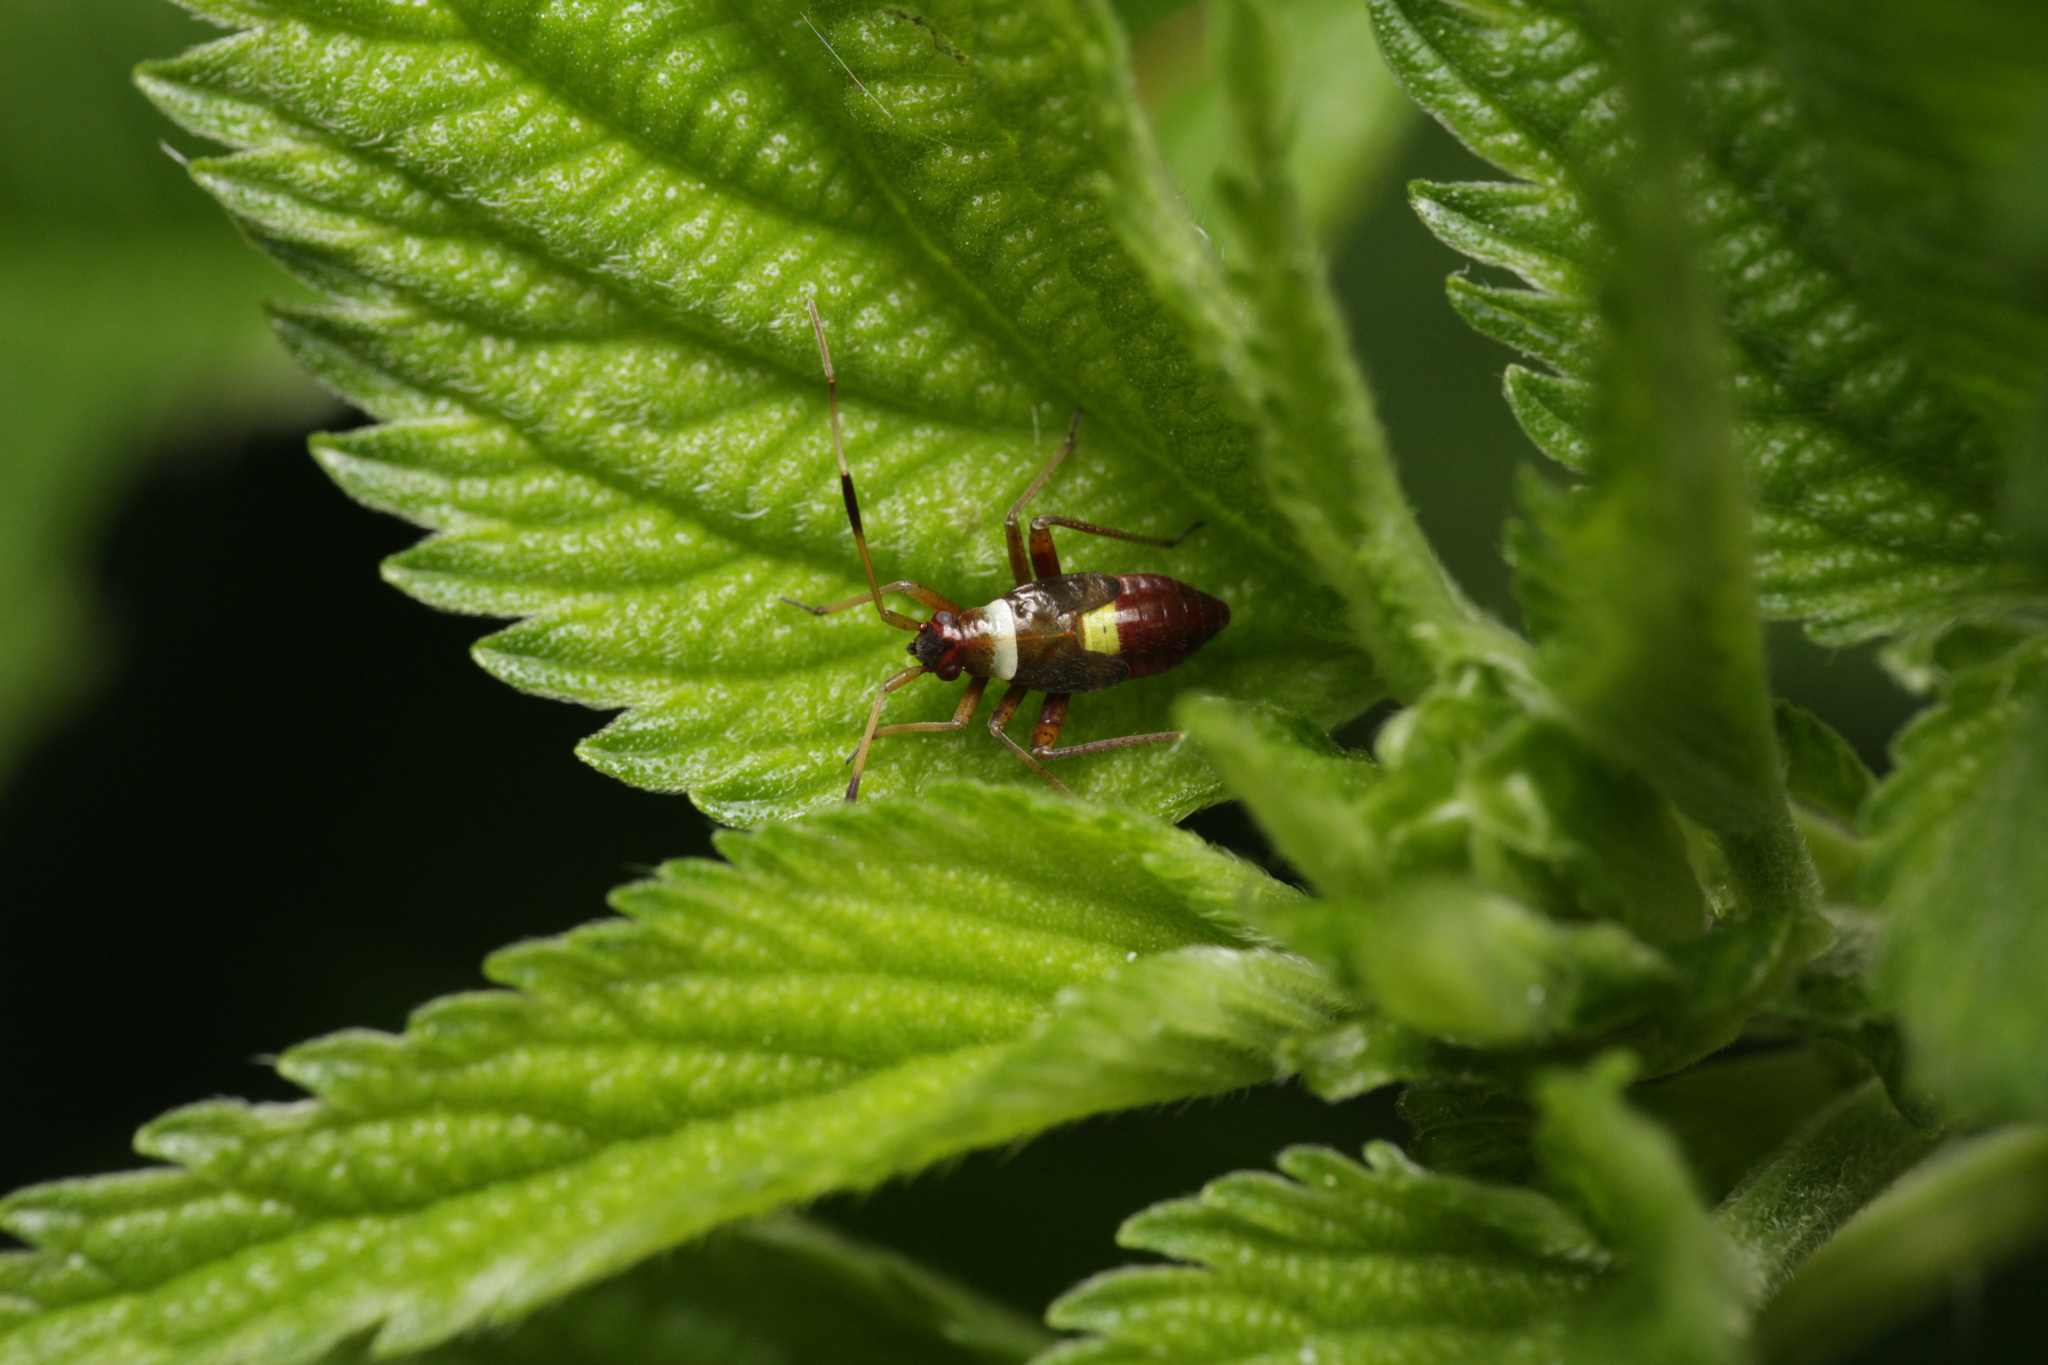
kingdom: Animalia
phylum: Arthropoda
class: Insecta
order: Hemiptera
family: Miridae
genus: Closterotomus
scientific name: Closterotomus biclavatus
